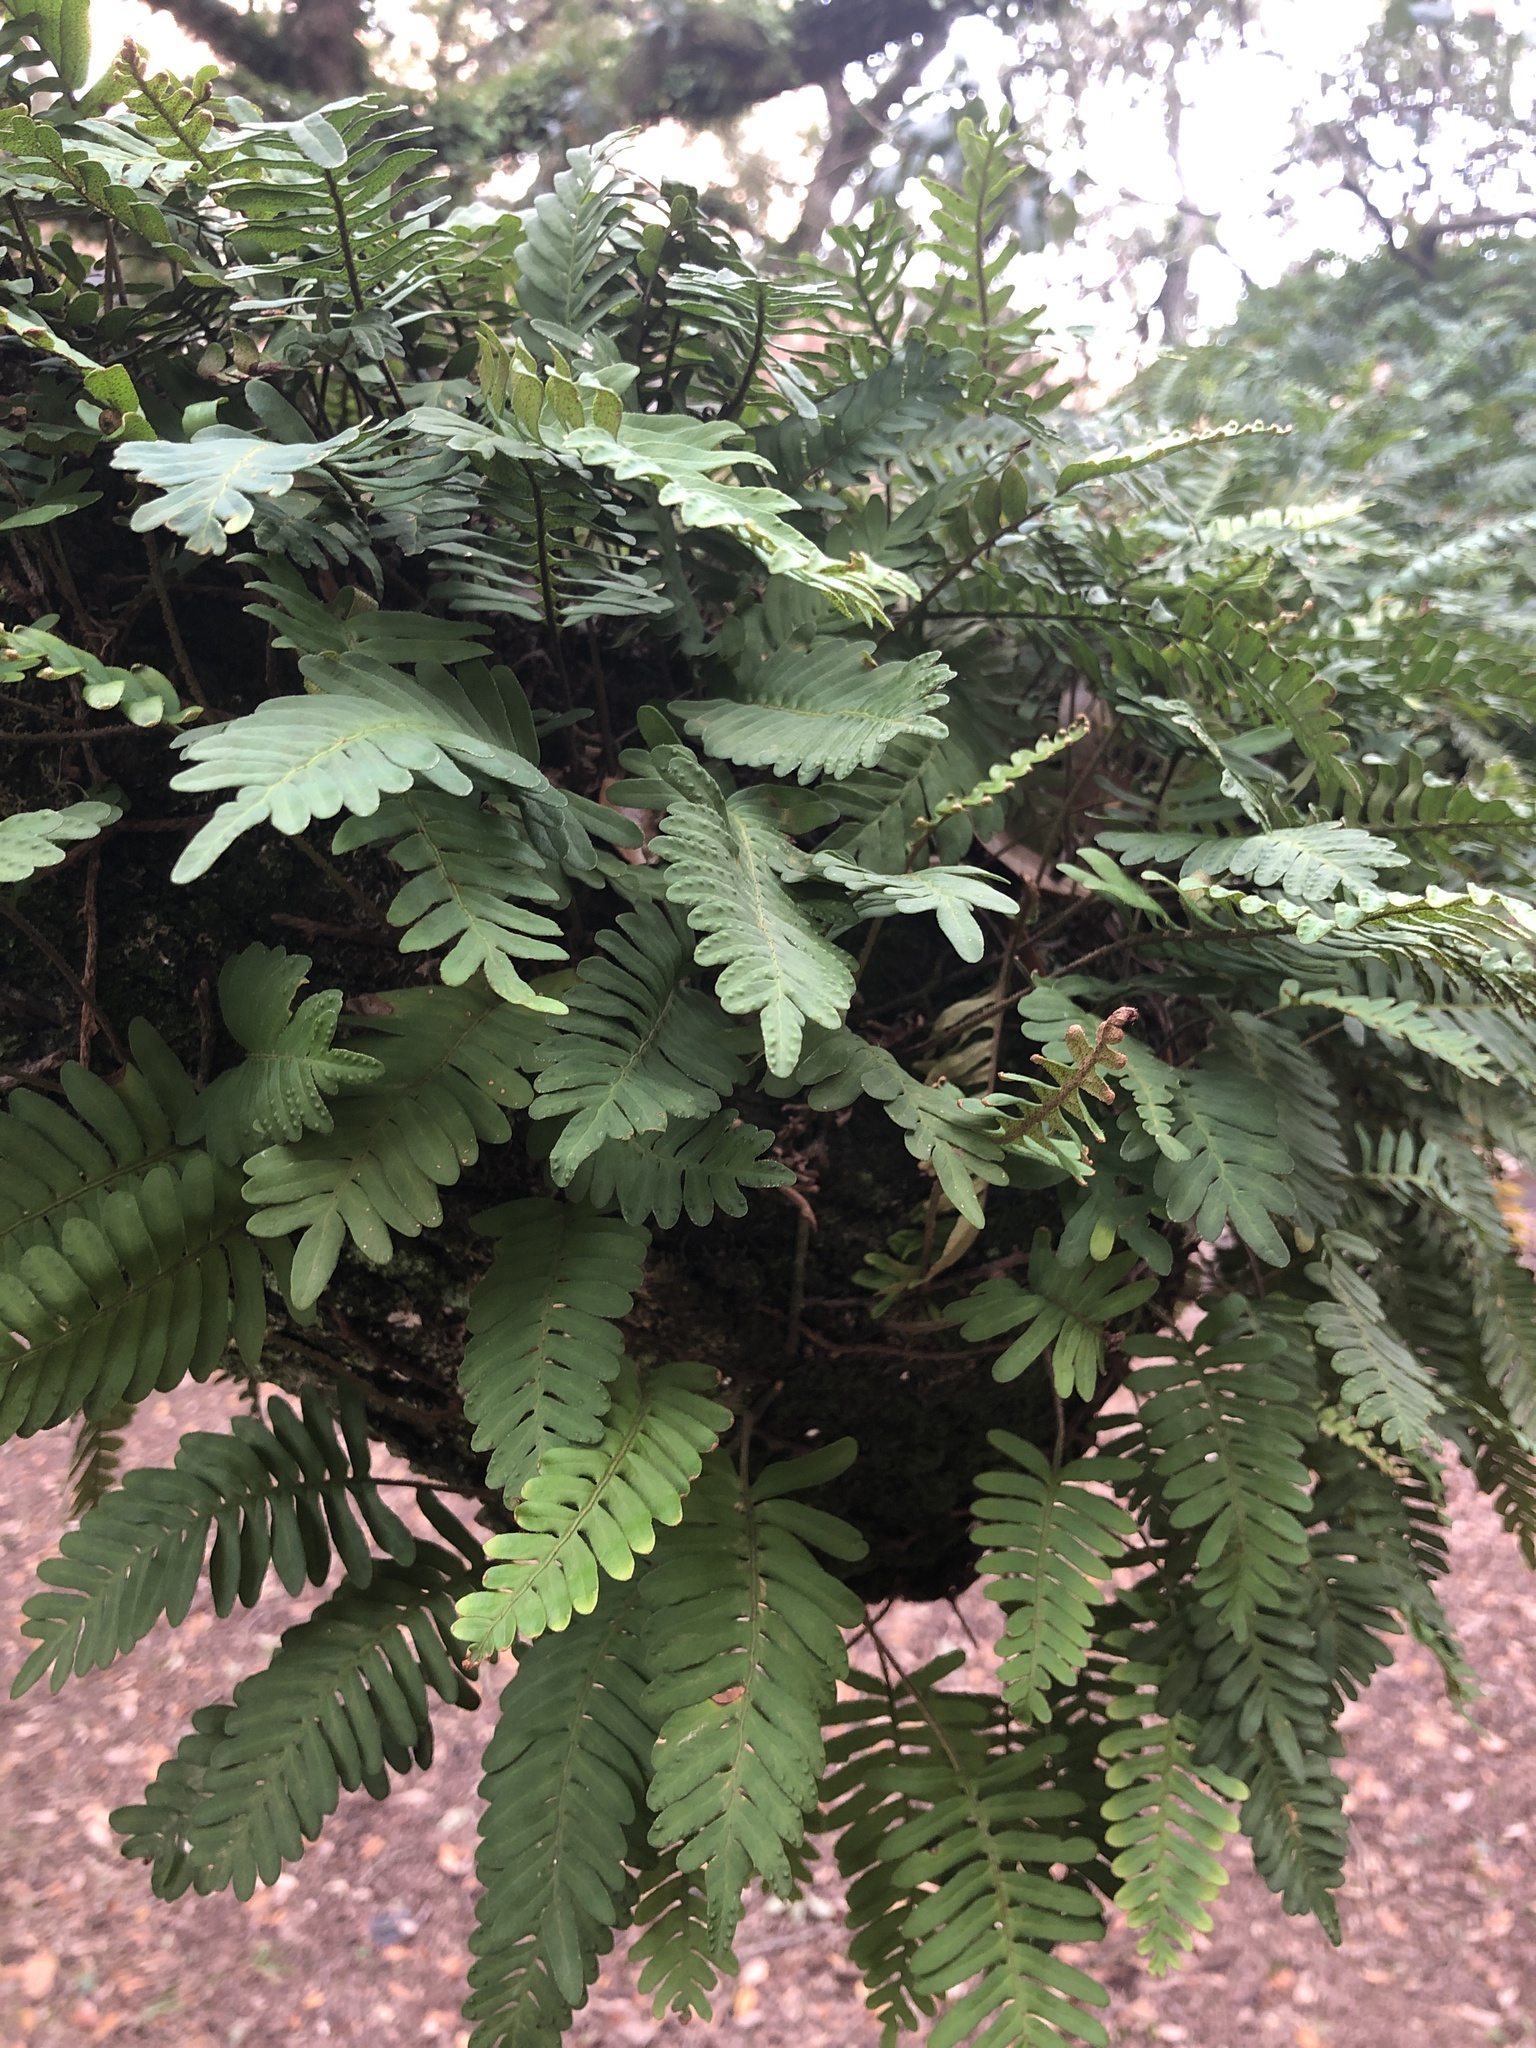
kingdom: Plantae
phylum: Tracheophyta
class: Polypodiopsida
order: Polypodiales
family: Polypodiaceae
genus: Pleopeltis
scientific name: Pleopeltis michauxiana
